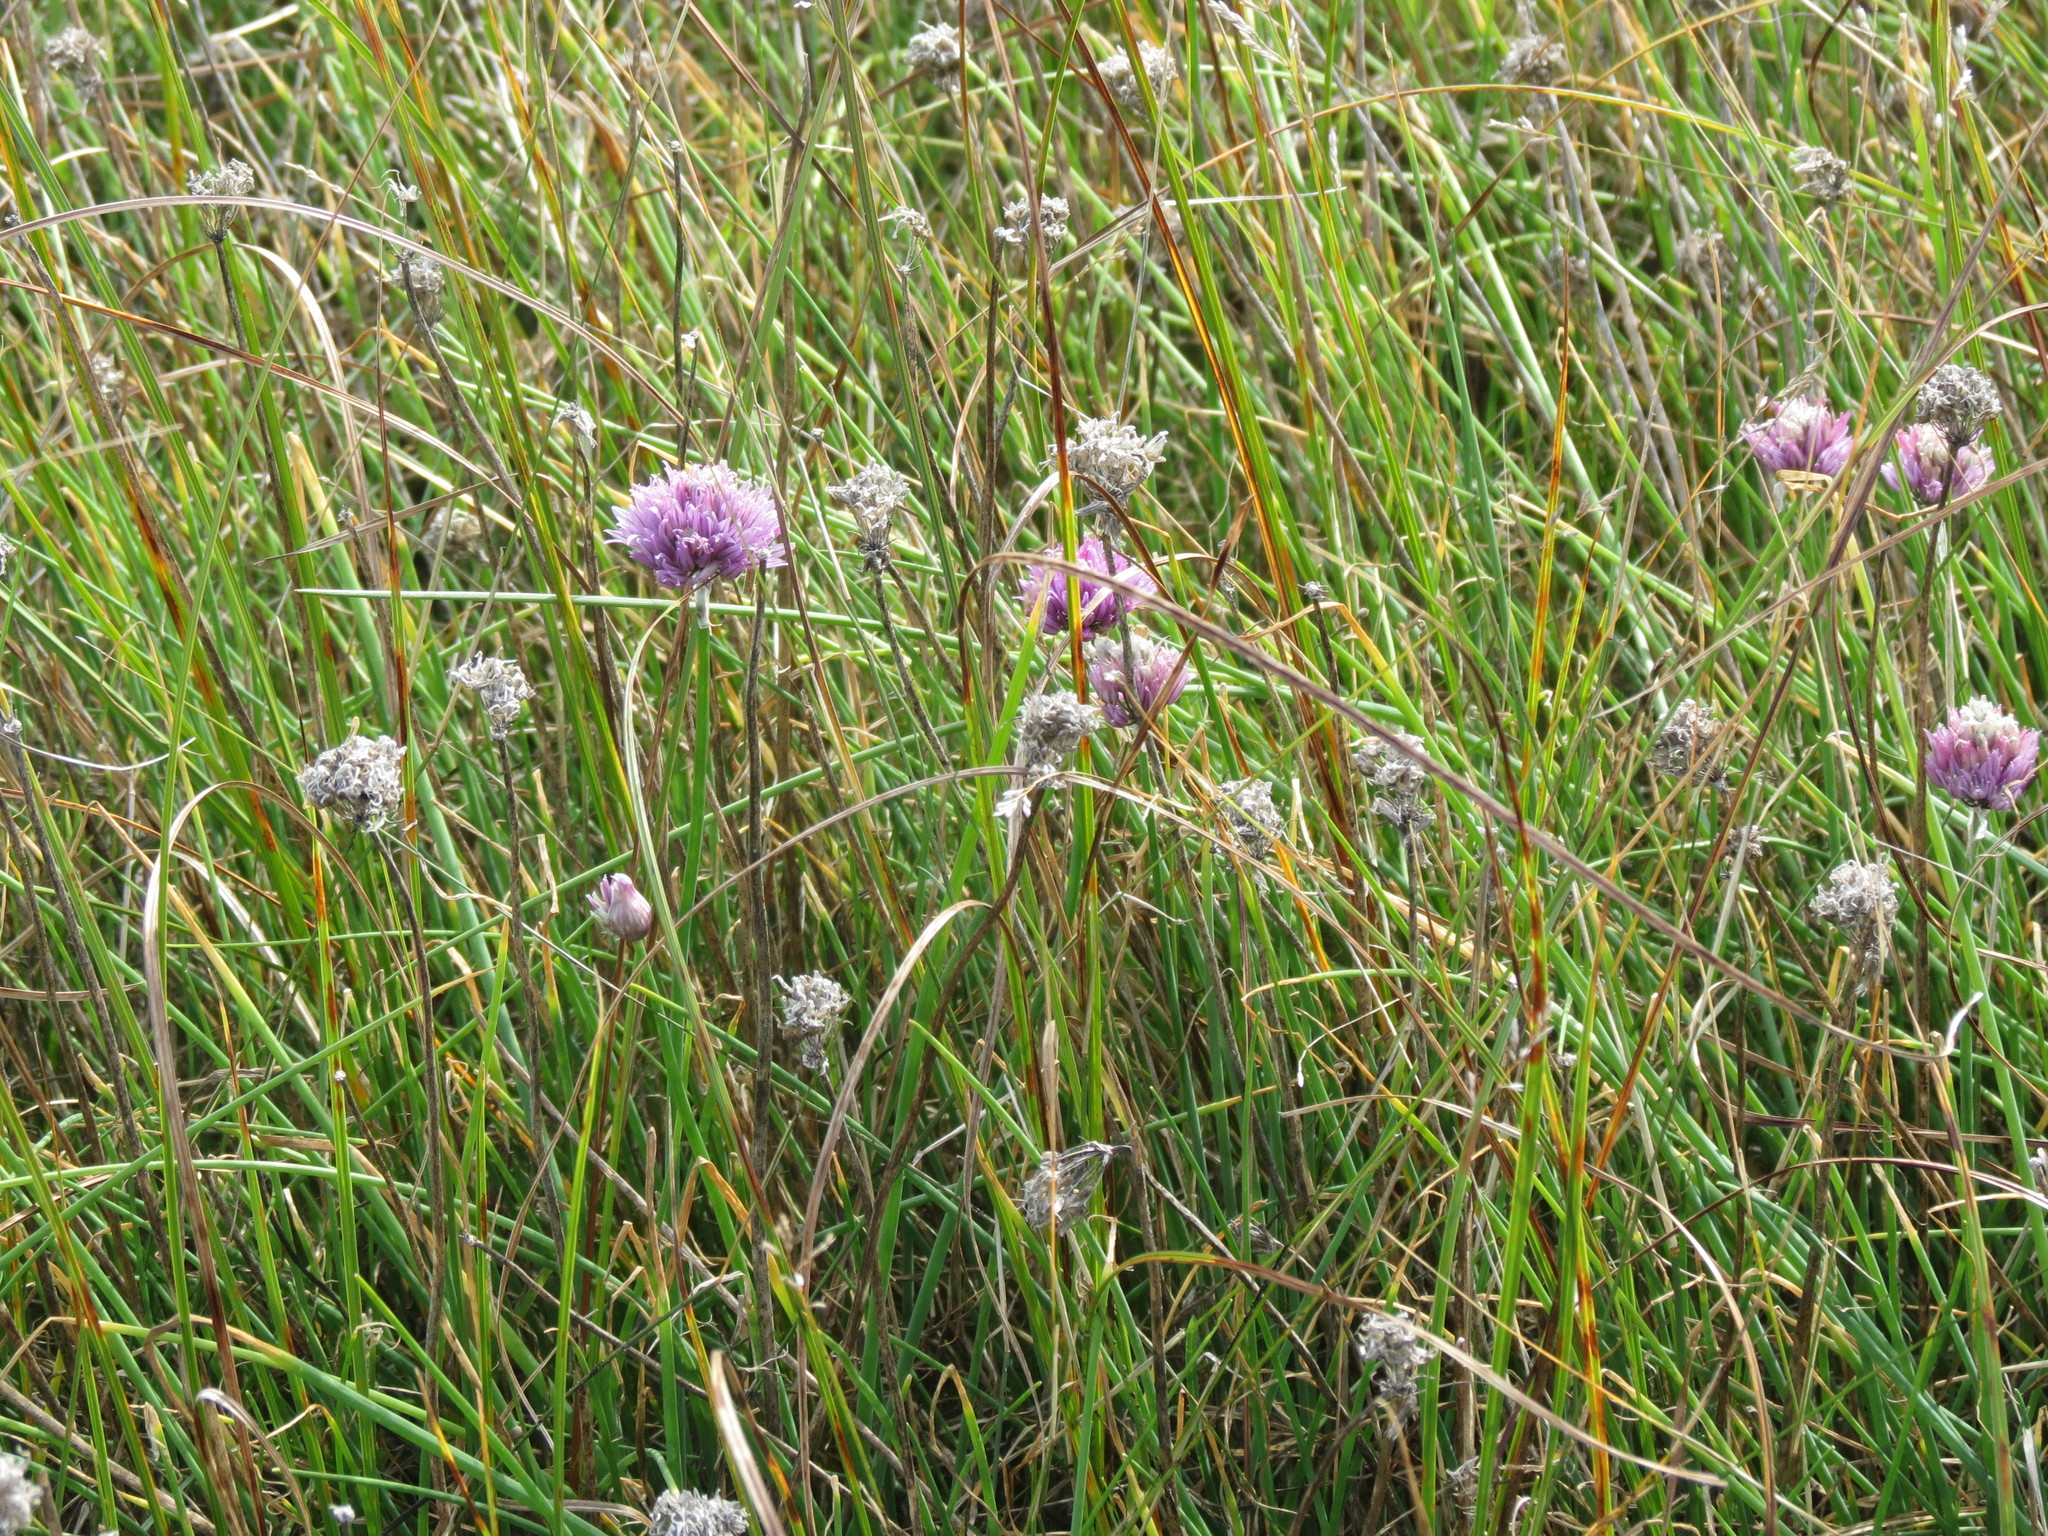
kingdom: Plantae
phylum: Tracheophyta
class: Liliopsida
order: Asparagales
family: Amaryllidaceae
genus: Allium
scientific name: Allium schoenoprasum
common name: Chives
